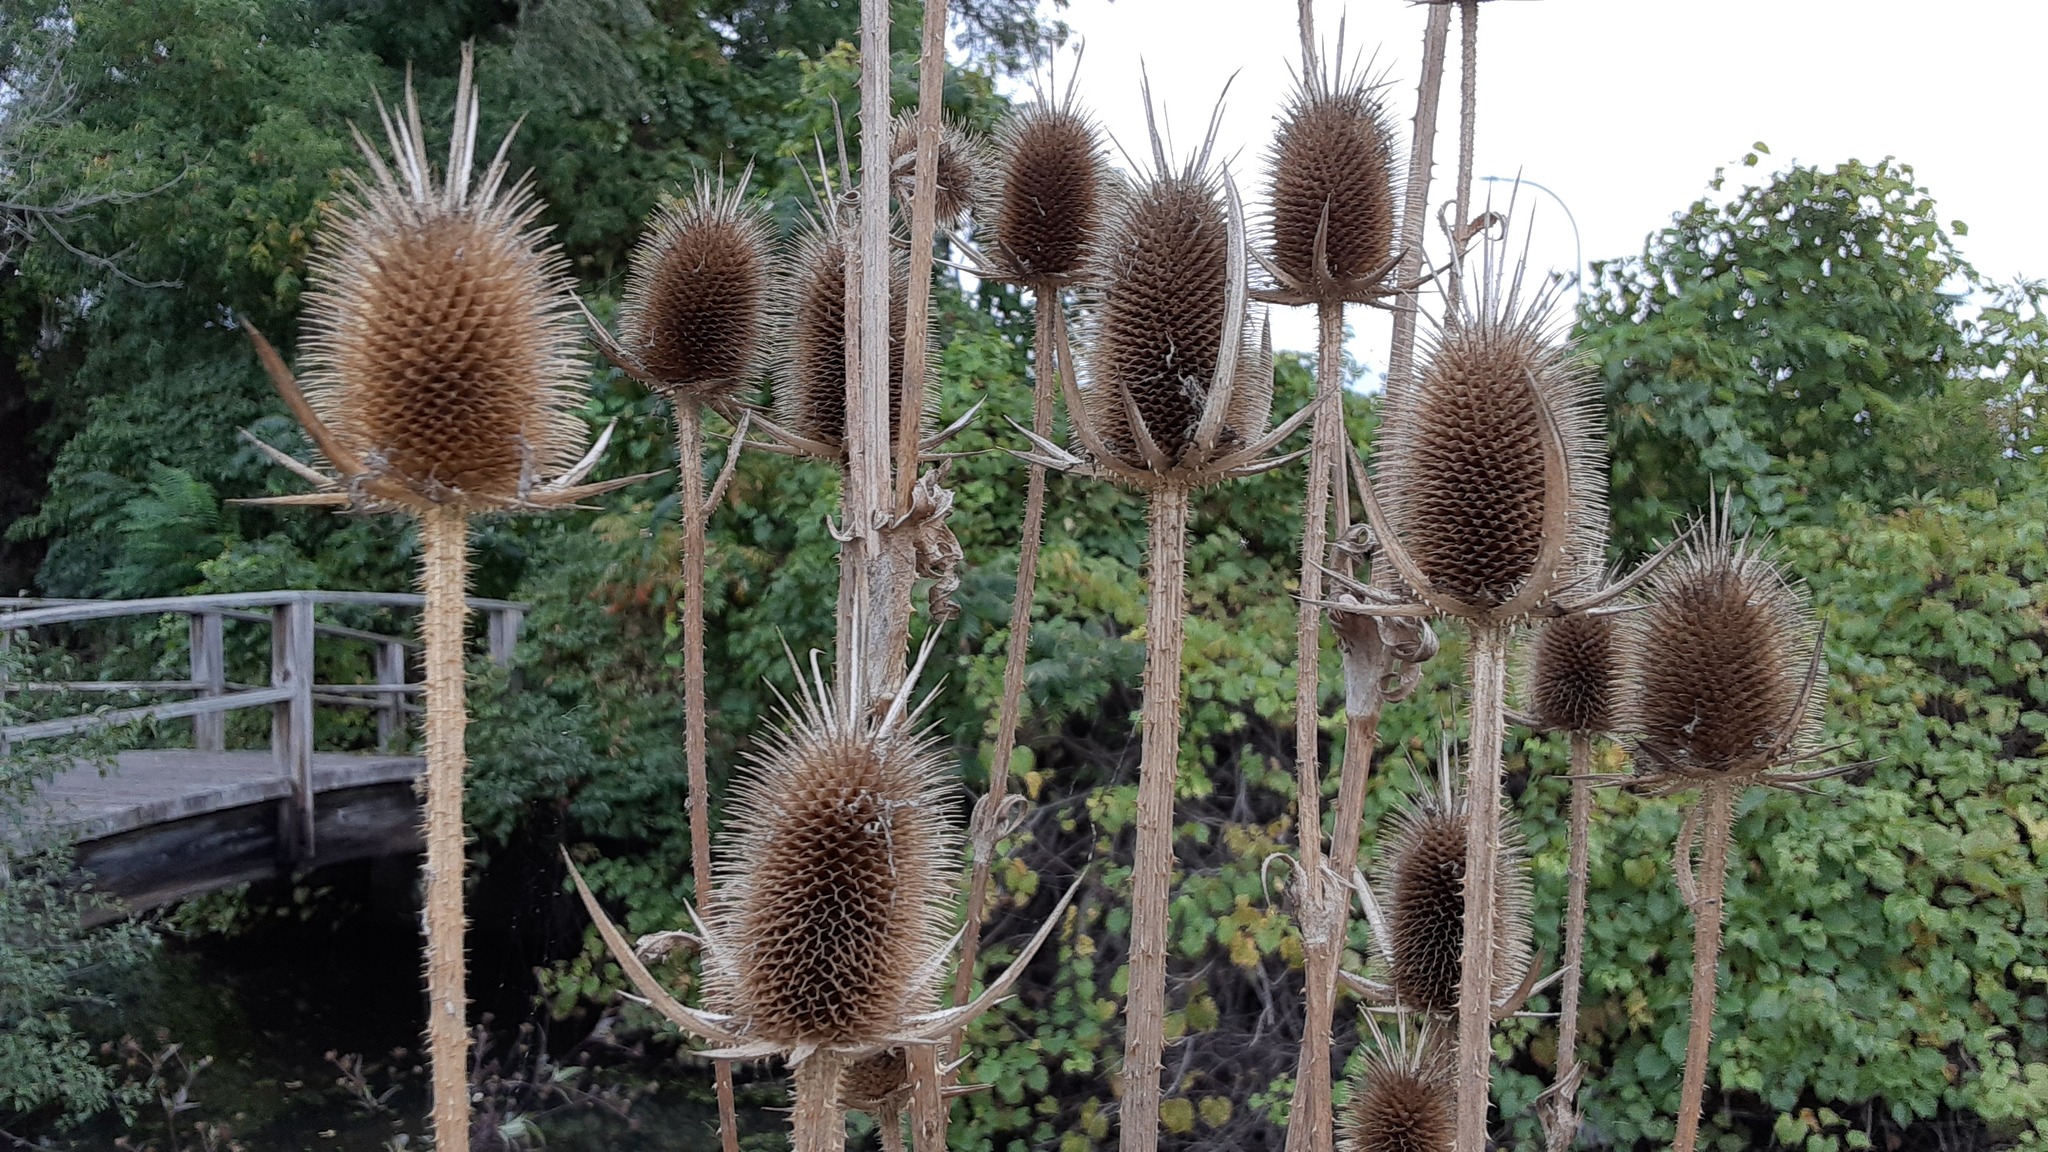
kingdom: Plantae
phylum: Tracheophyta
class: Magnoliopsida
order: Dipsacales
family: Caprifoliaceae
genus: Dipsacus
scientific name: Dipsacus laciniatus
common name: Cut-leaved teasel
